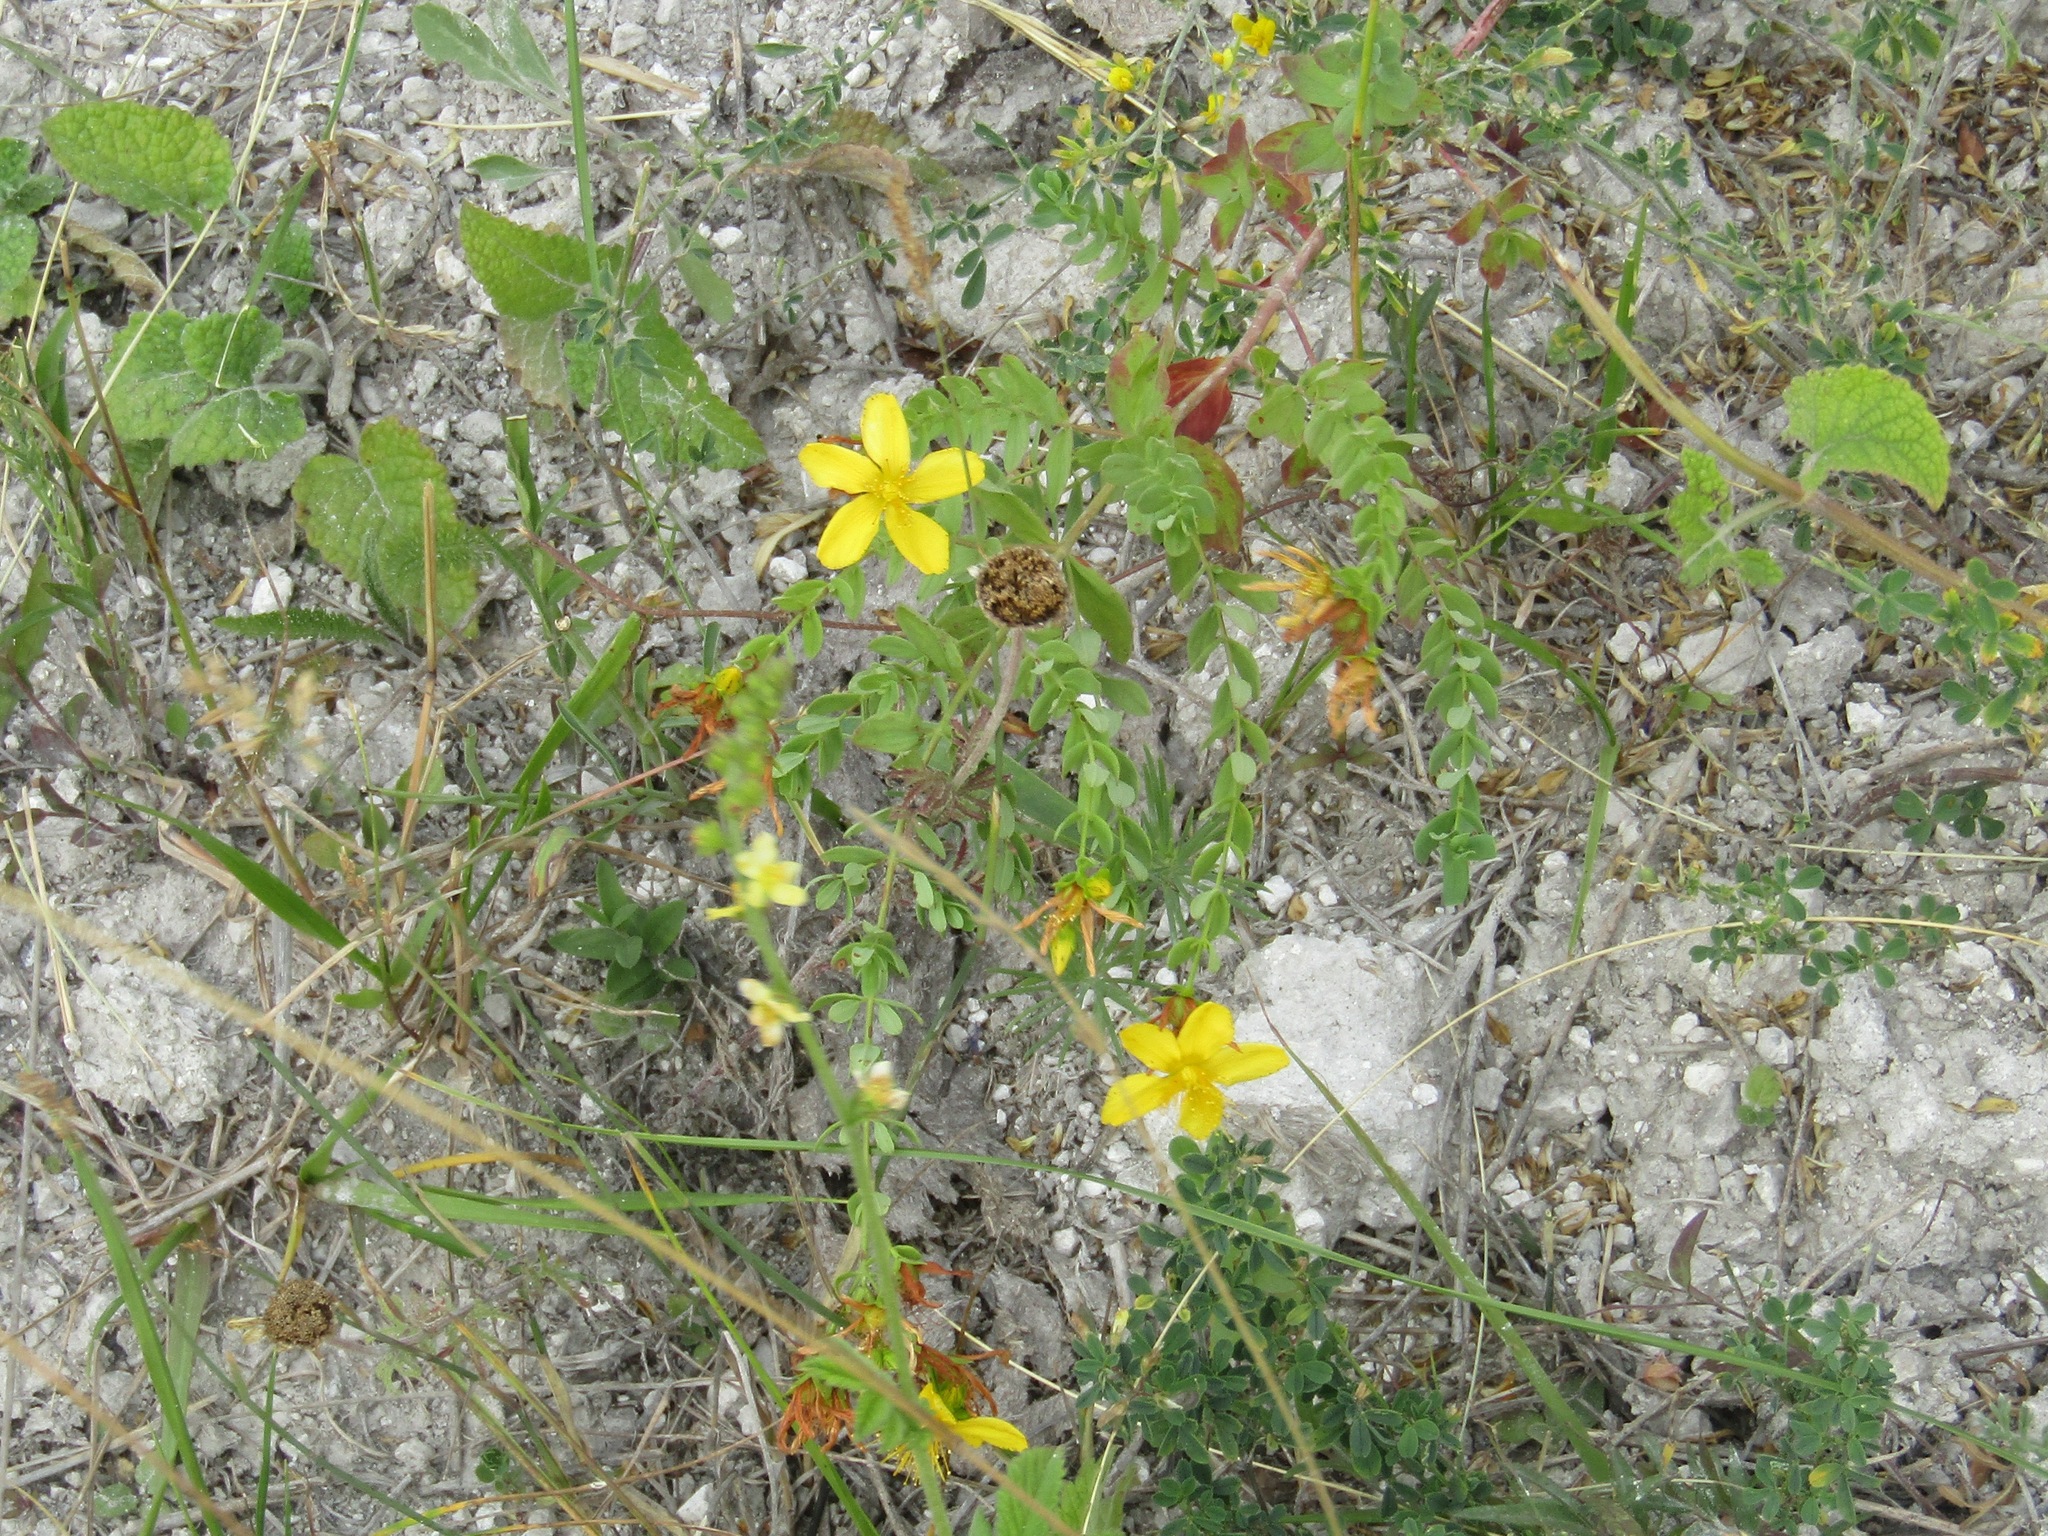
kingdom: Plantae
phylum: Tracheophyta
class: Magnoliopsida
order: Malpighiales
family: Hypericaceae
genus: Hypericum
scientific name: Hypericum perforatum
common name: Common st. johnswort
